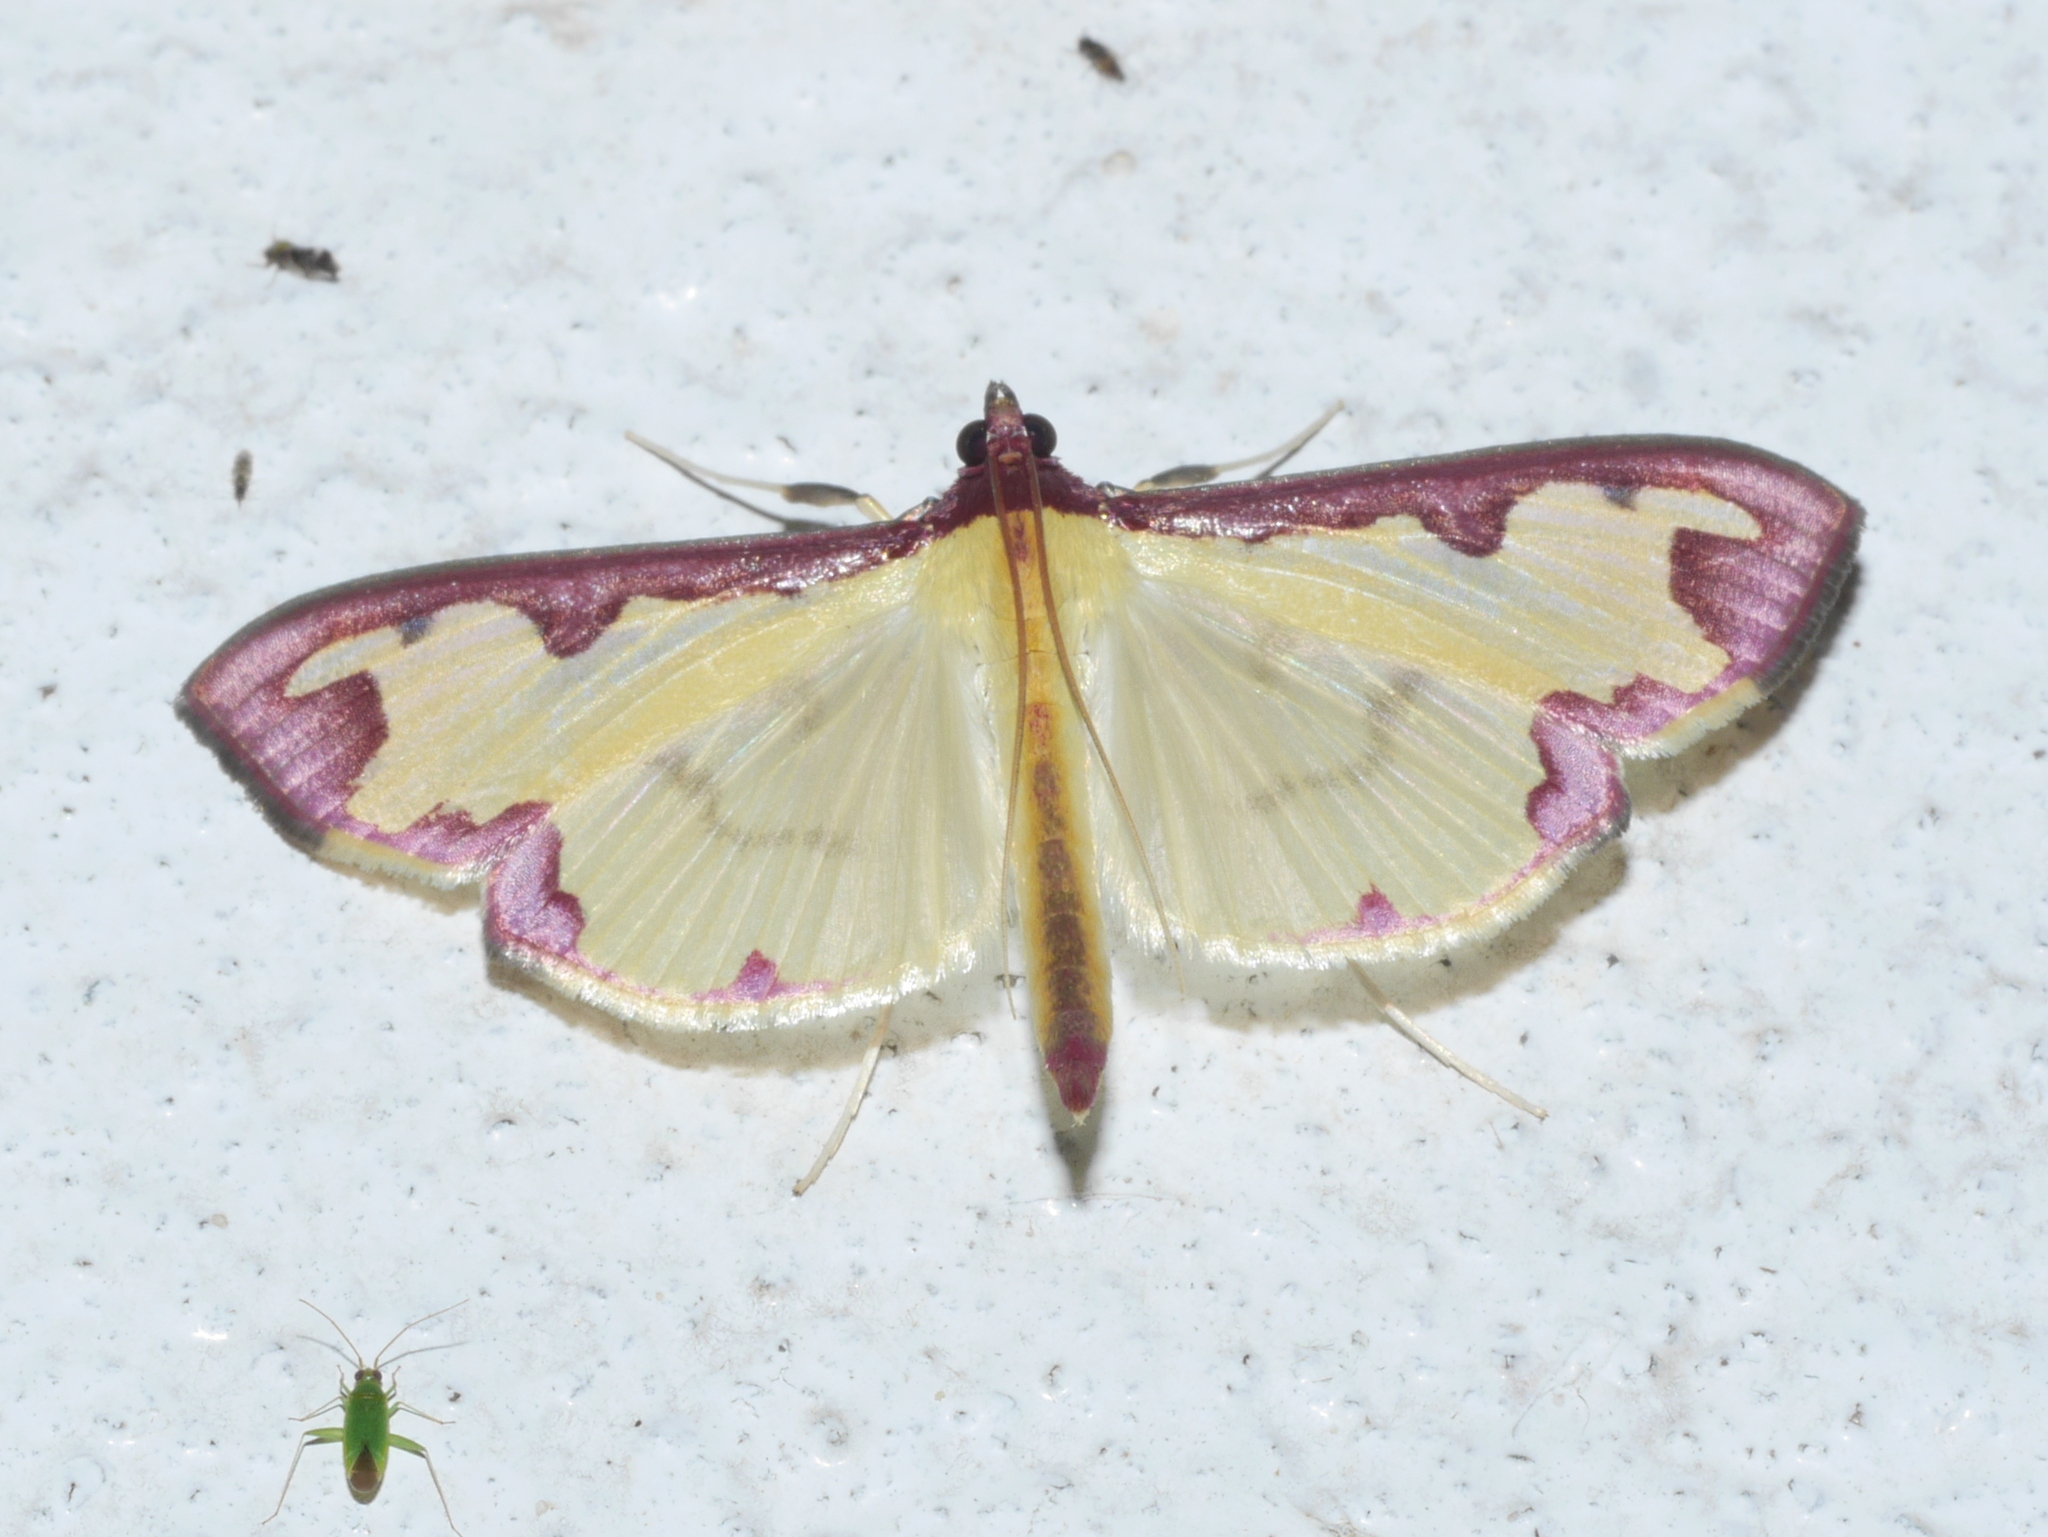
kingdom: Animalia
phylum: Arthropoda
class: Insecta
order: Lepidoptera
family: Crambidae
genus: Cadarena
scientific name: Cadarena pudoraria
